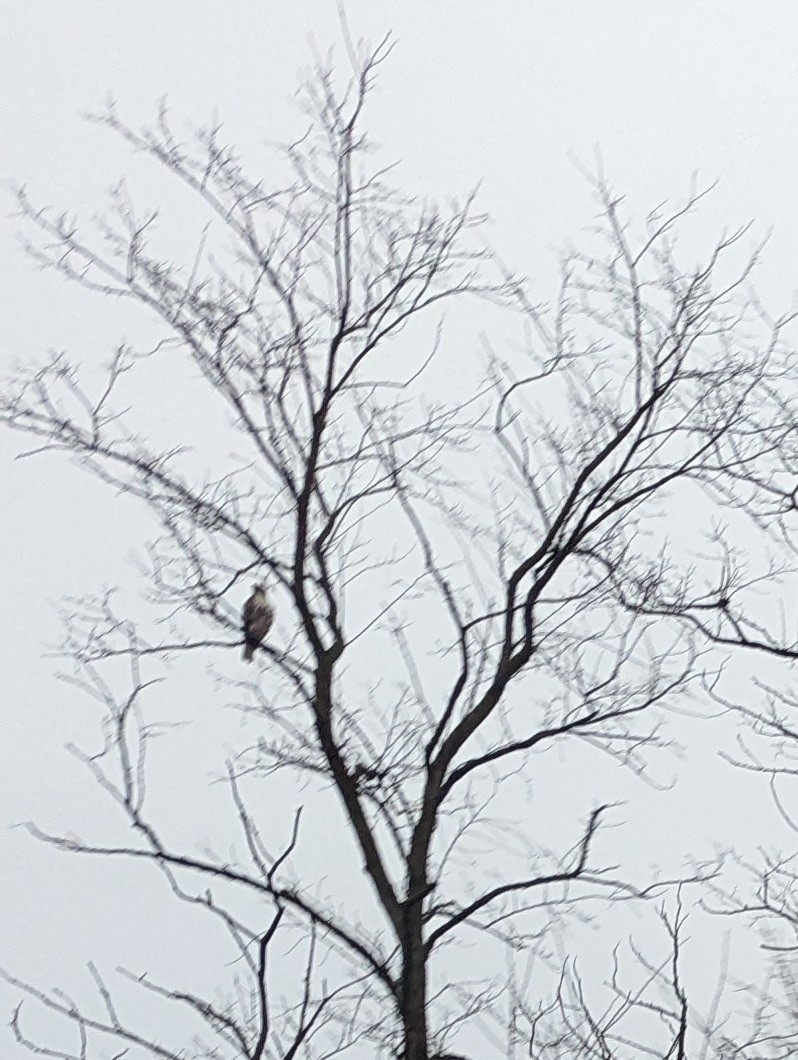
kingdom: Animalia
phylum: Chordata
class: Aves
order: Accipitriformes
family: Accipitridae
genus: Buteo
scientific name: Buteo jamaicensis
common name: Red-tailed hawk
